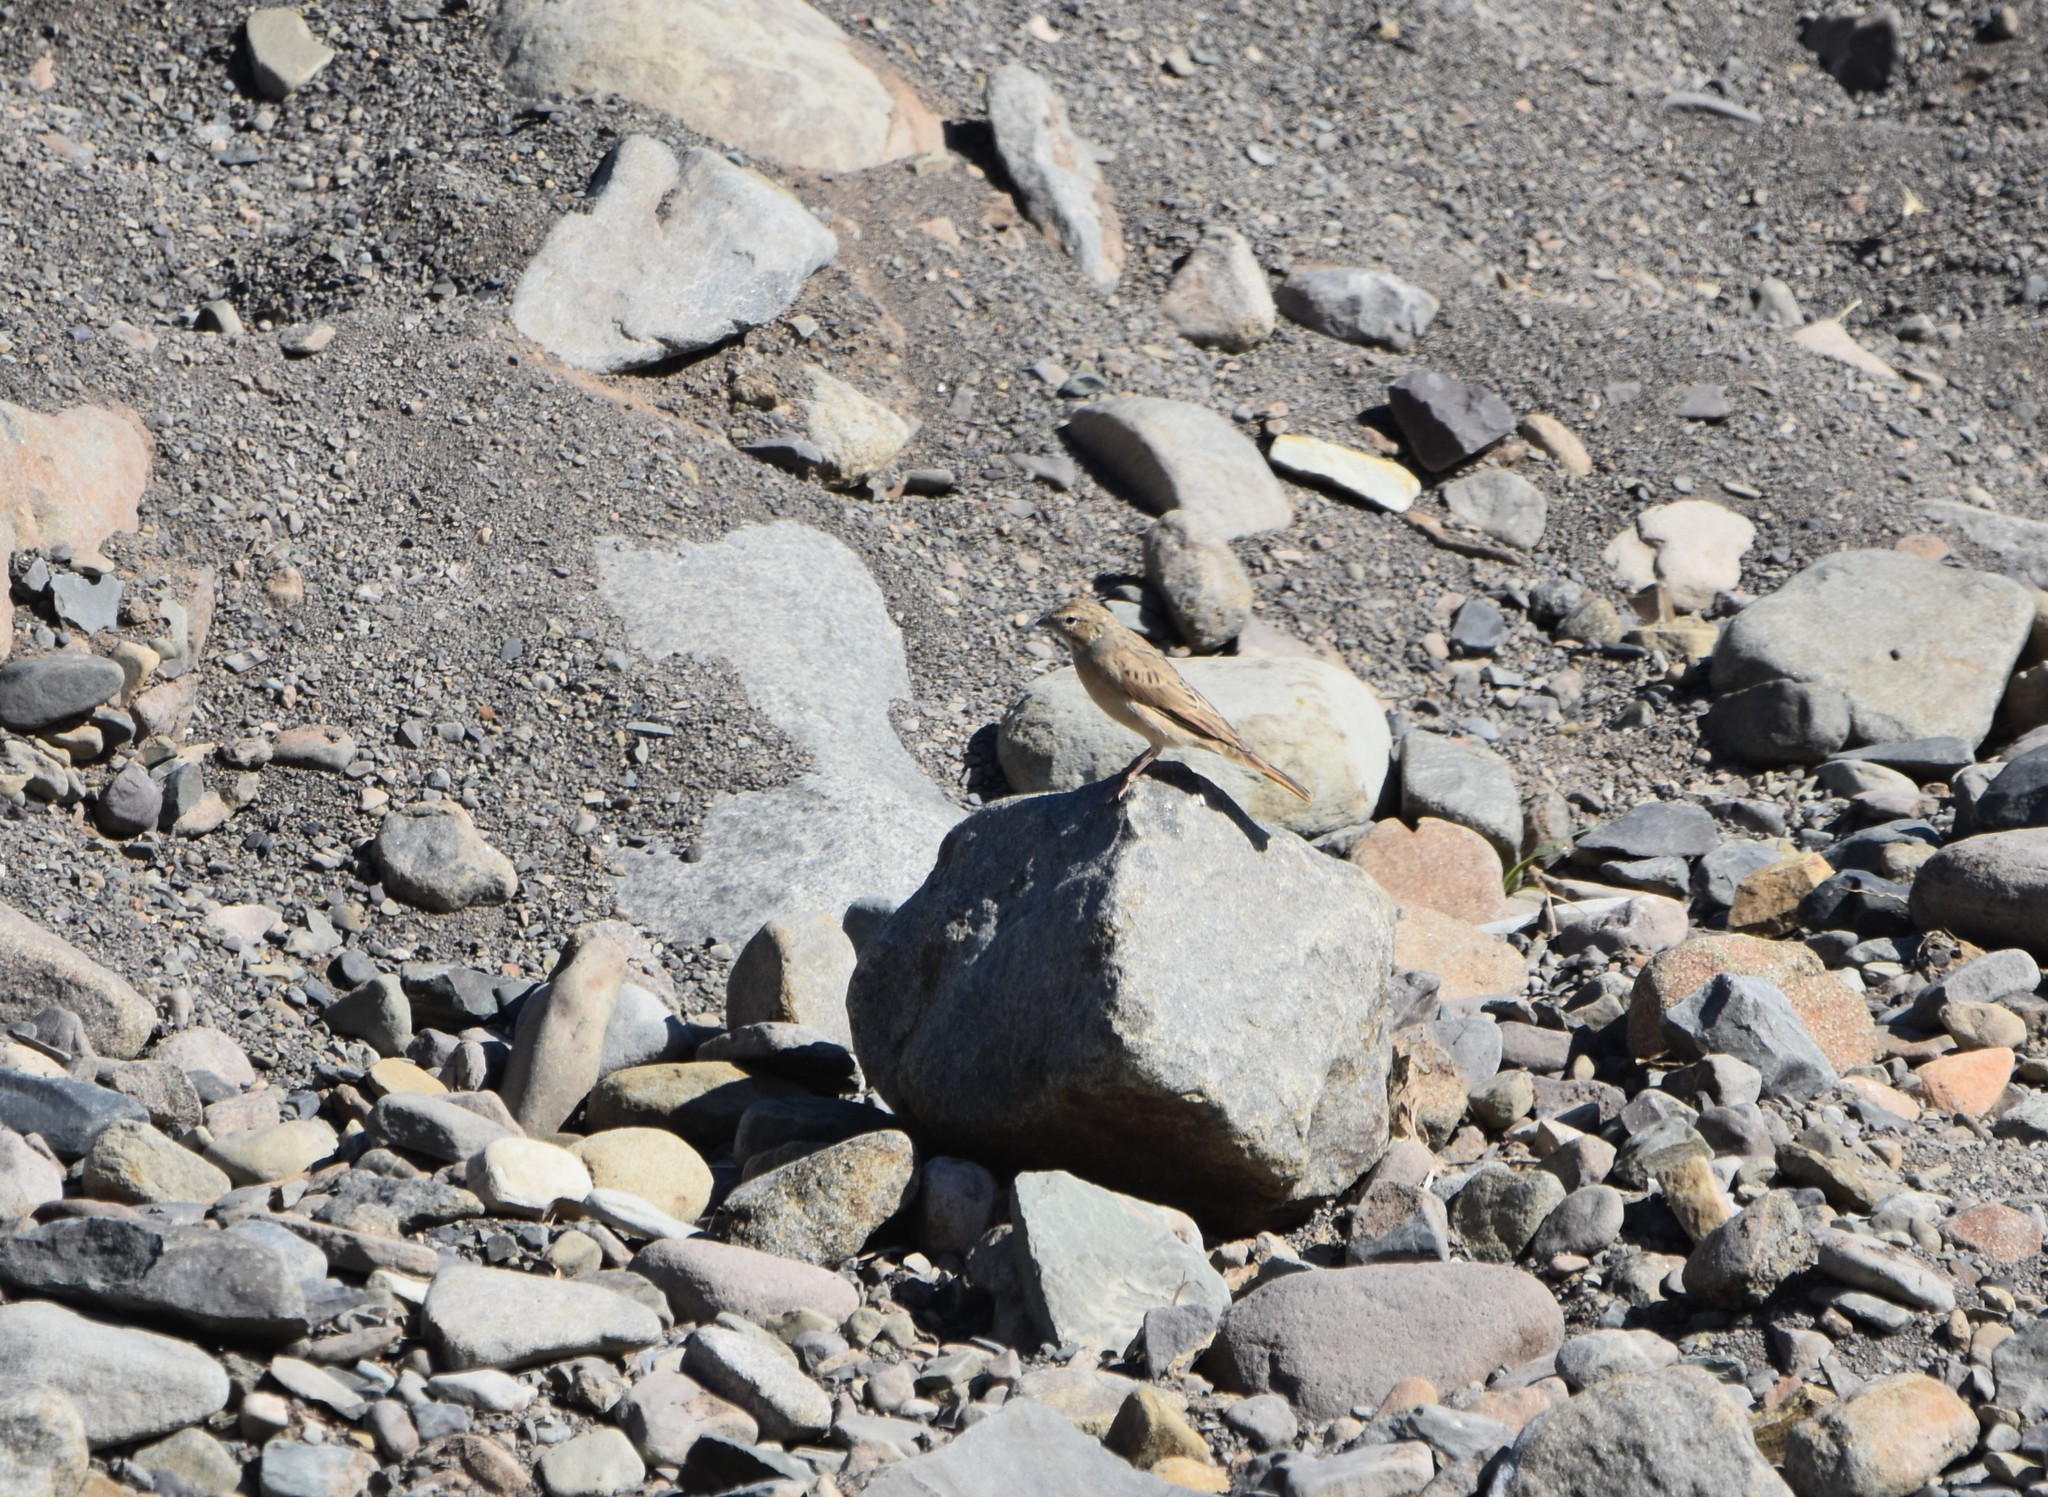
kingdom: Animalia
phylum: Chordata
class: Aves
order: Passeriformes
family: Emberizidae
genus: Emberiza
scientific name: Emberiza impetuani
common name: Lark-like bunting
